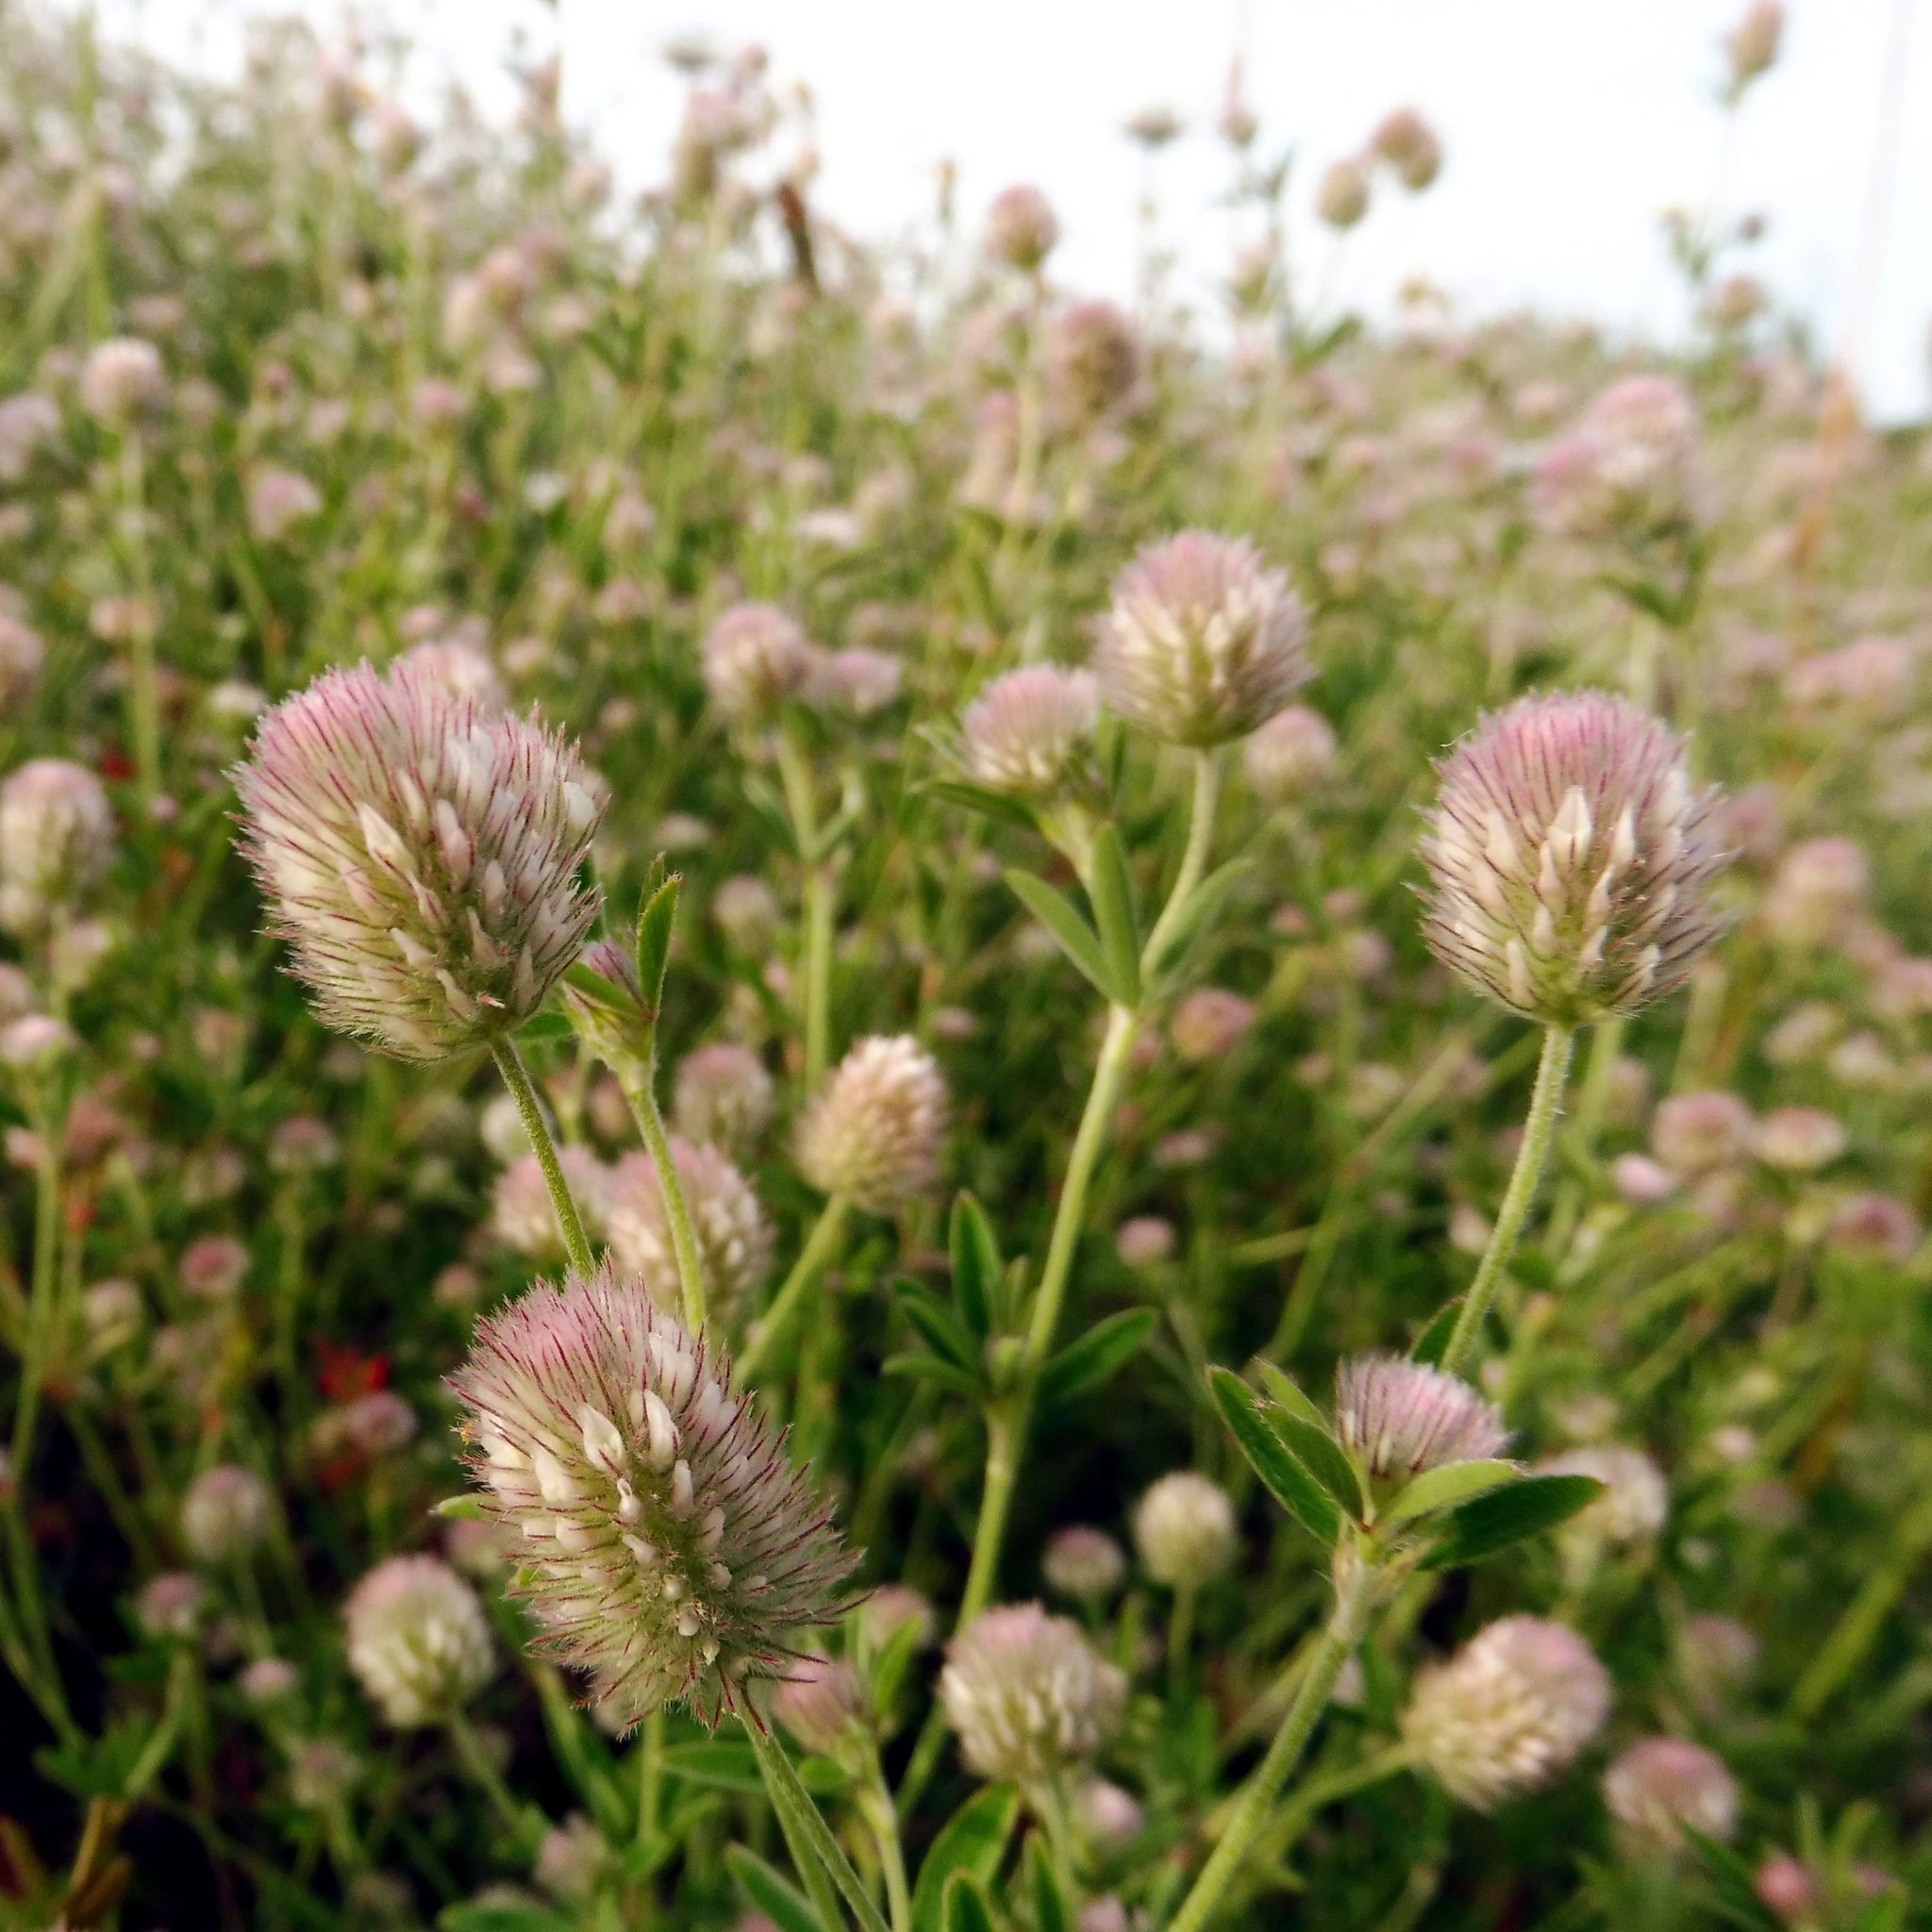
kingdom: Plantae
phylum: Tracheophyta
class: Magnoliopsida
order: Fabales
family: Fabaceae
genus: Trifolium
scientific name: Trifolium arvense
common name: Hare's-foot clover
